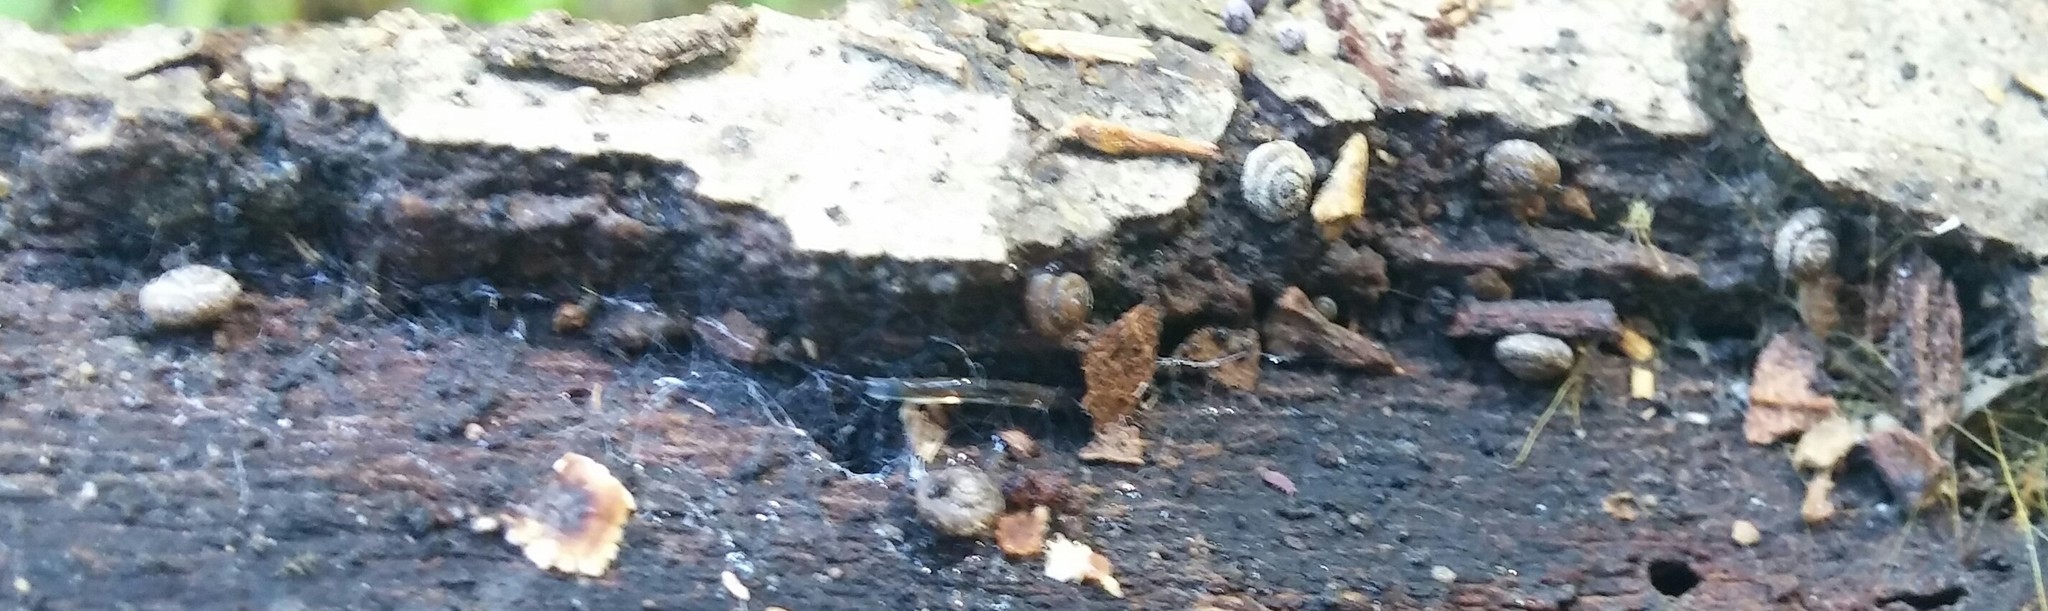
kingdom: Animalia
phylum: Mollusca
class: Gastropoda
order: Stylommatophora
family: Punctidae
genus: Paralaoma
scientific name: Paralaoma servilis
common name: Pinhead spot
